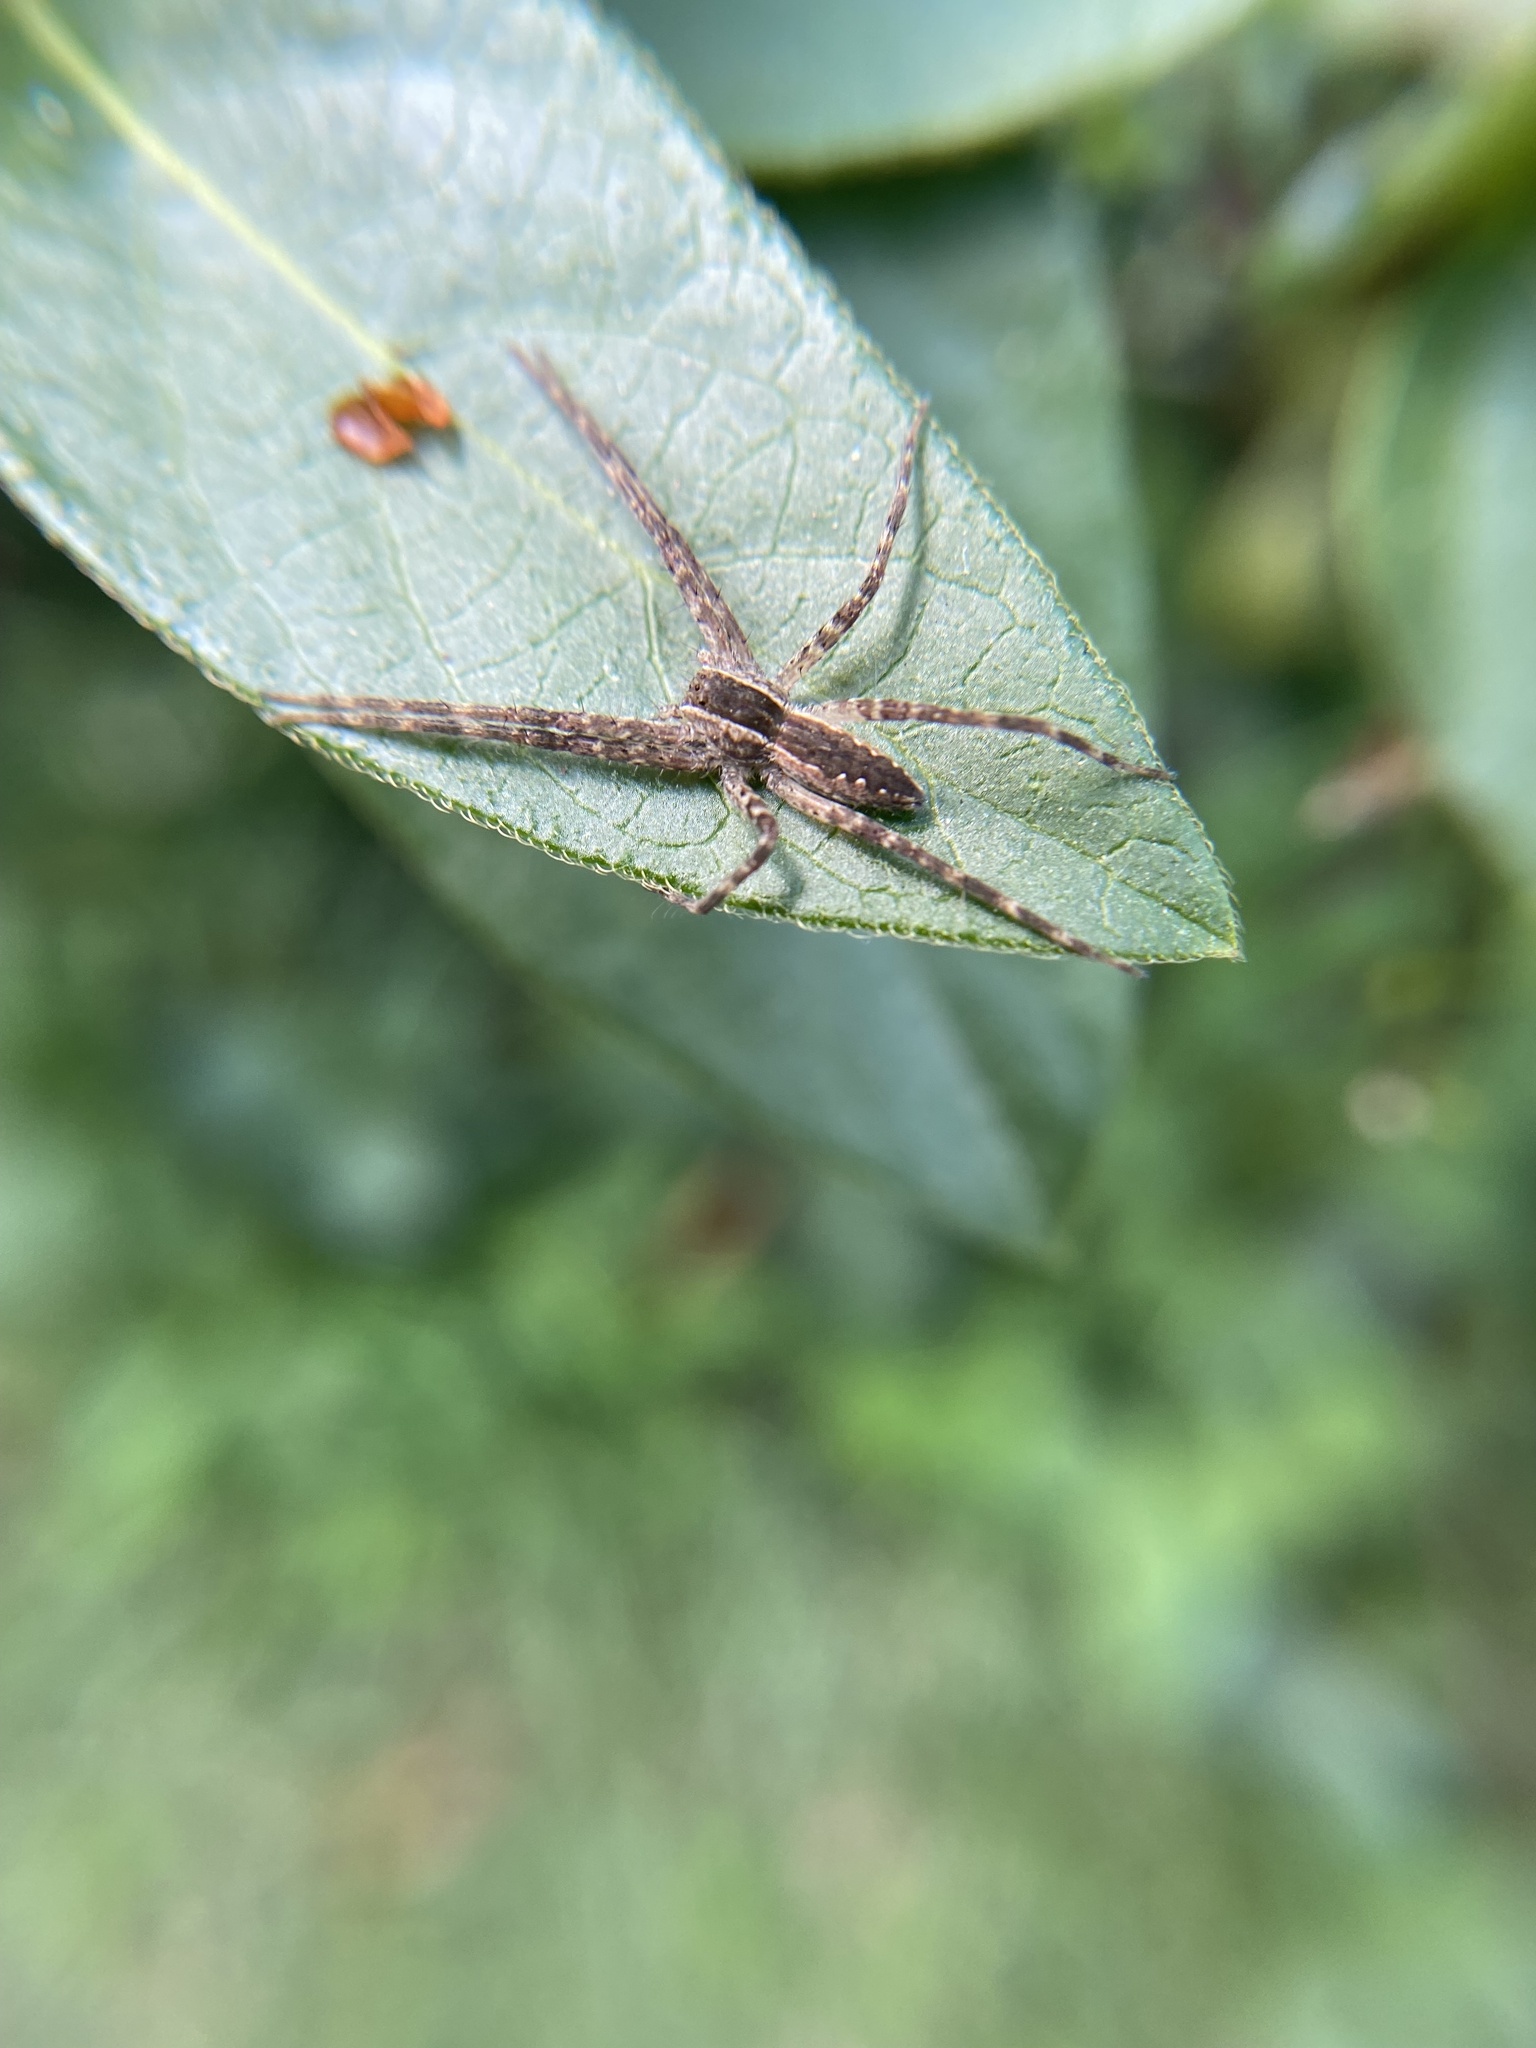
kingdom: Animalia
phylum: Arthropoda
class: Arachnida
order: Araneae
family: Pisauridae
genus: Pisaurina
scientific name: Pisaurina mira
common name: American nursery web spider
